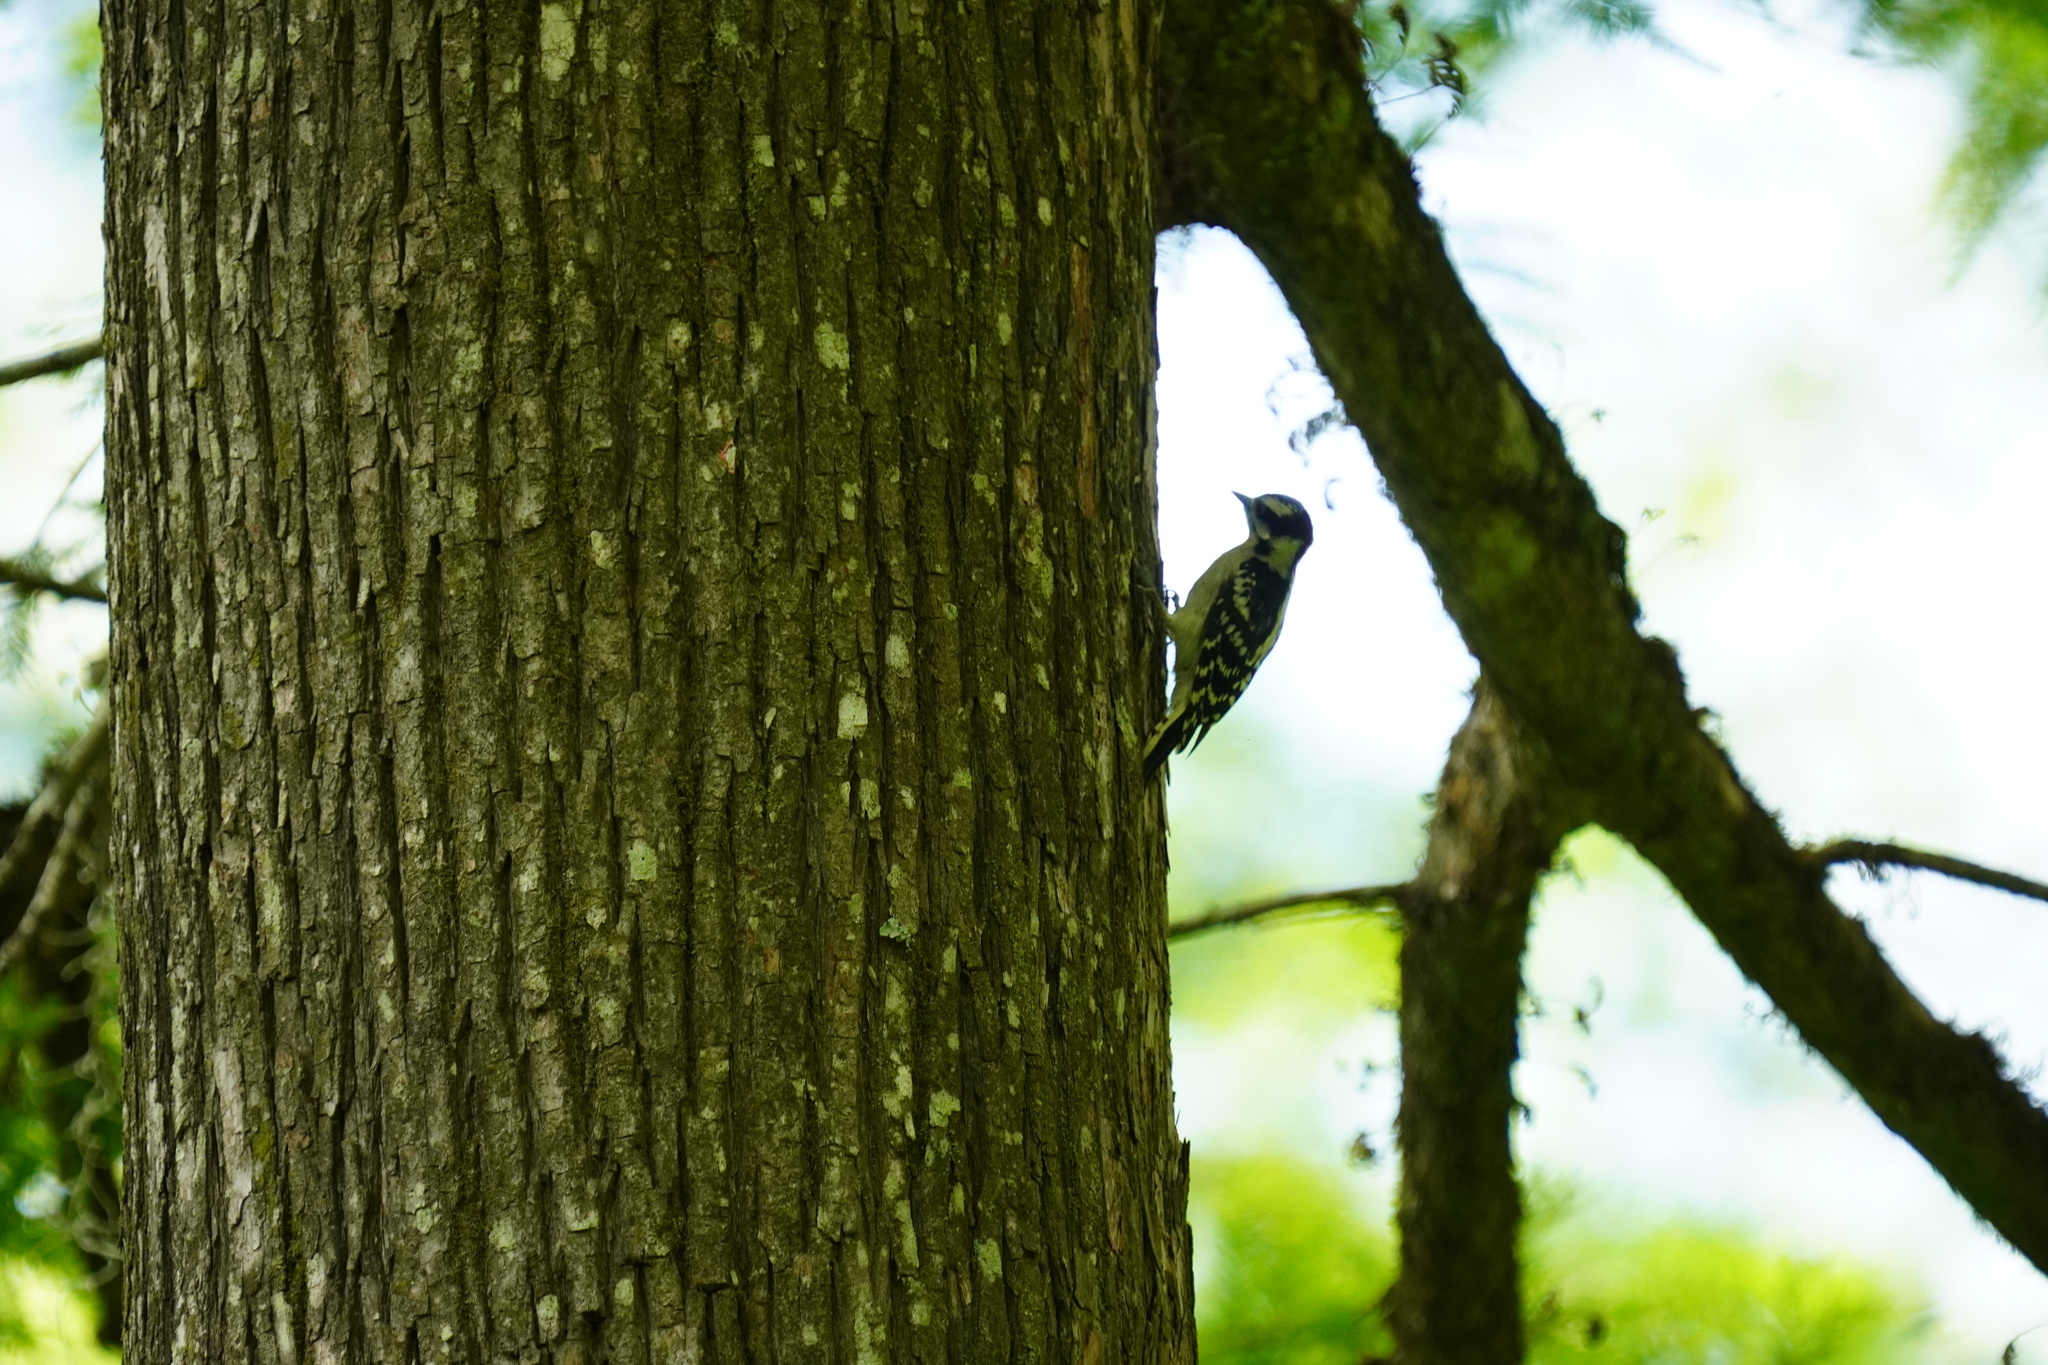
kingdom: Animalia
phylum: Chordata
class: Aves
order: Piciformes
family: Picidae
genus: Dryobates
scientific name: Dryobates pubescens
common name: Downy woodpecker
